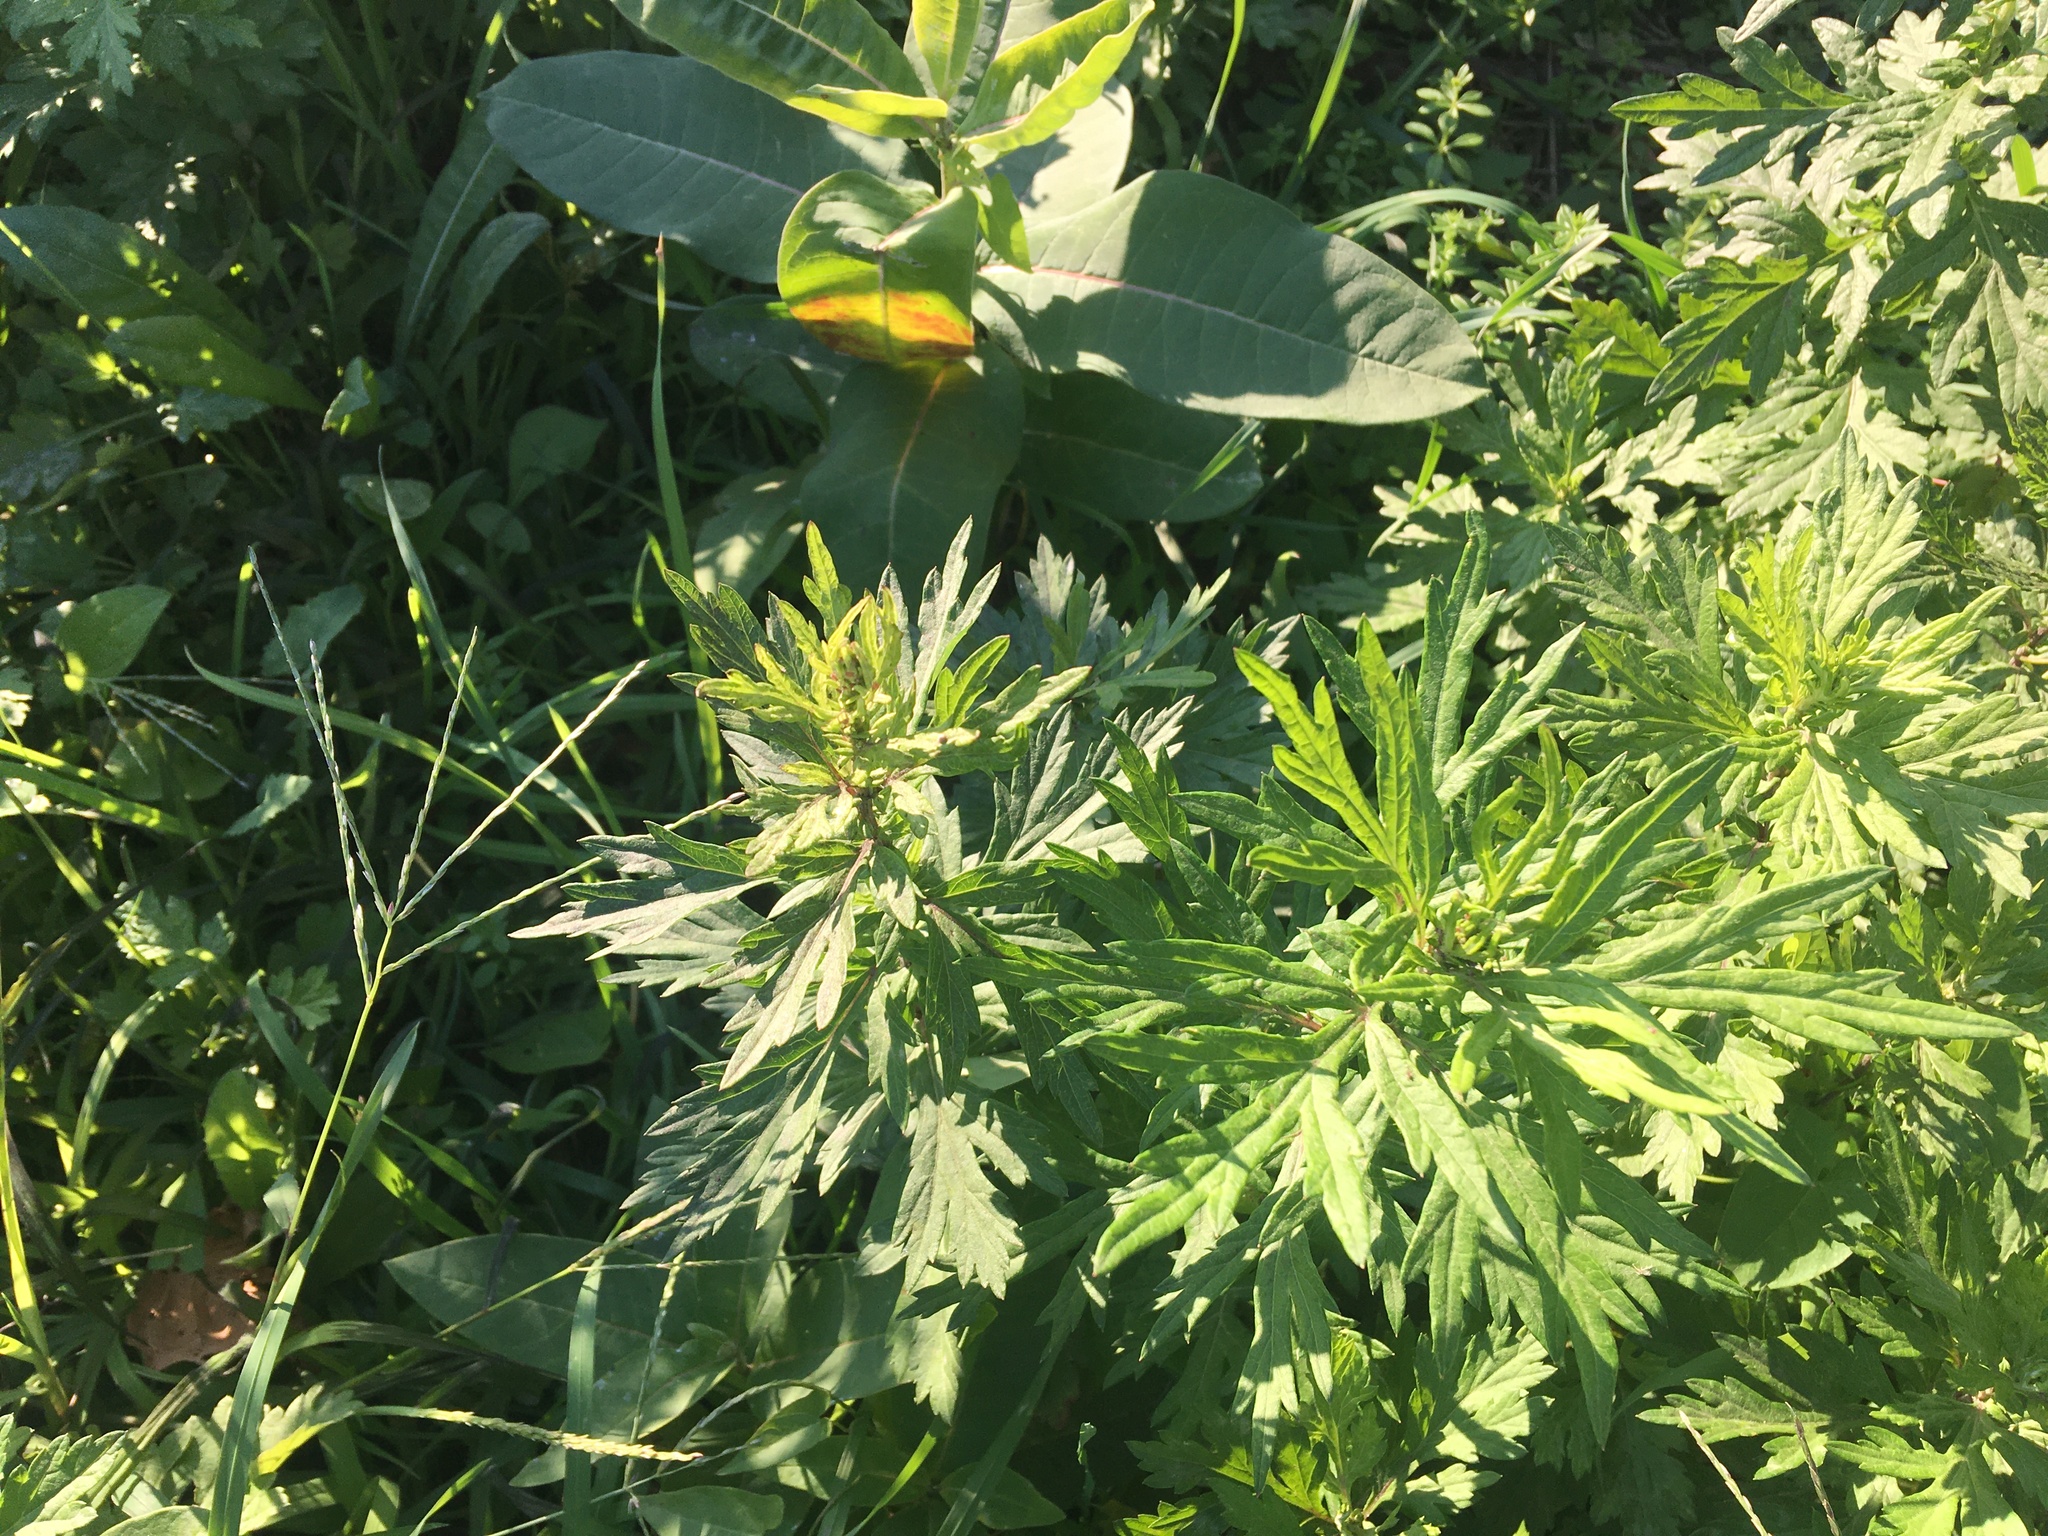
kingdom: Plantae
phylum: Tracheophyta
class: Magnoliopsida
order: Asterales
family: Asteraceae
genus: Artemisia
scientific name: Artemisia vulgaris
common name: Mugwort
